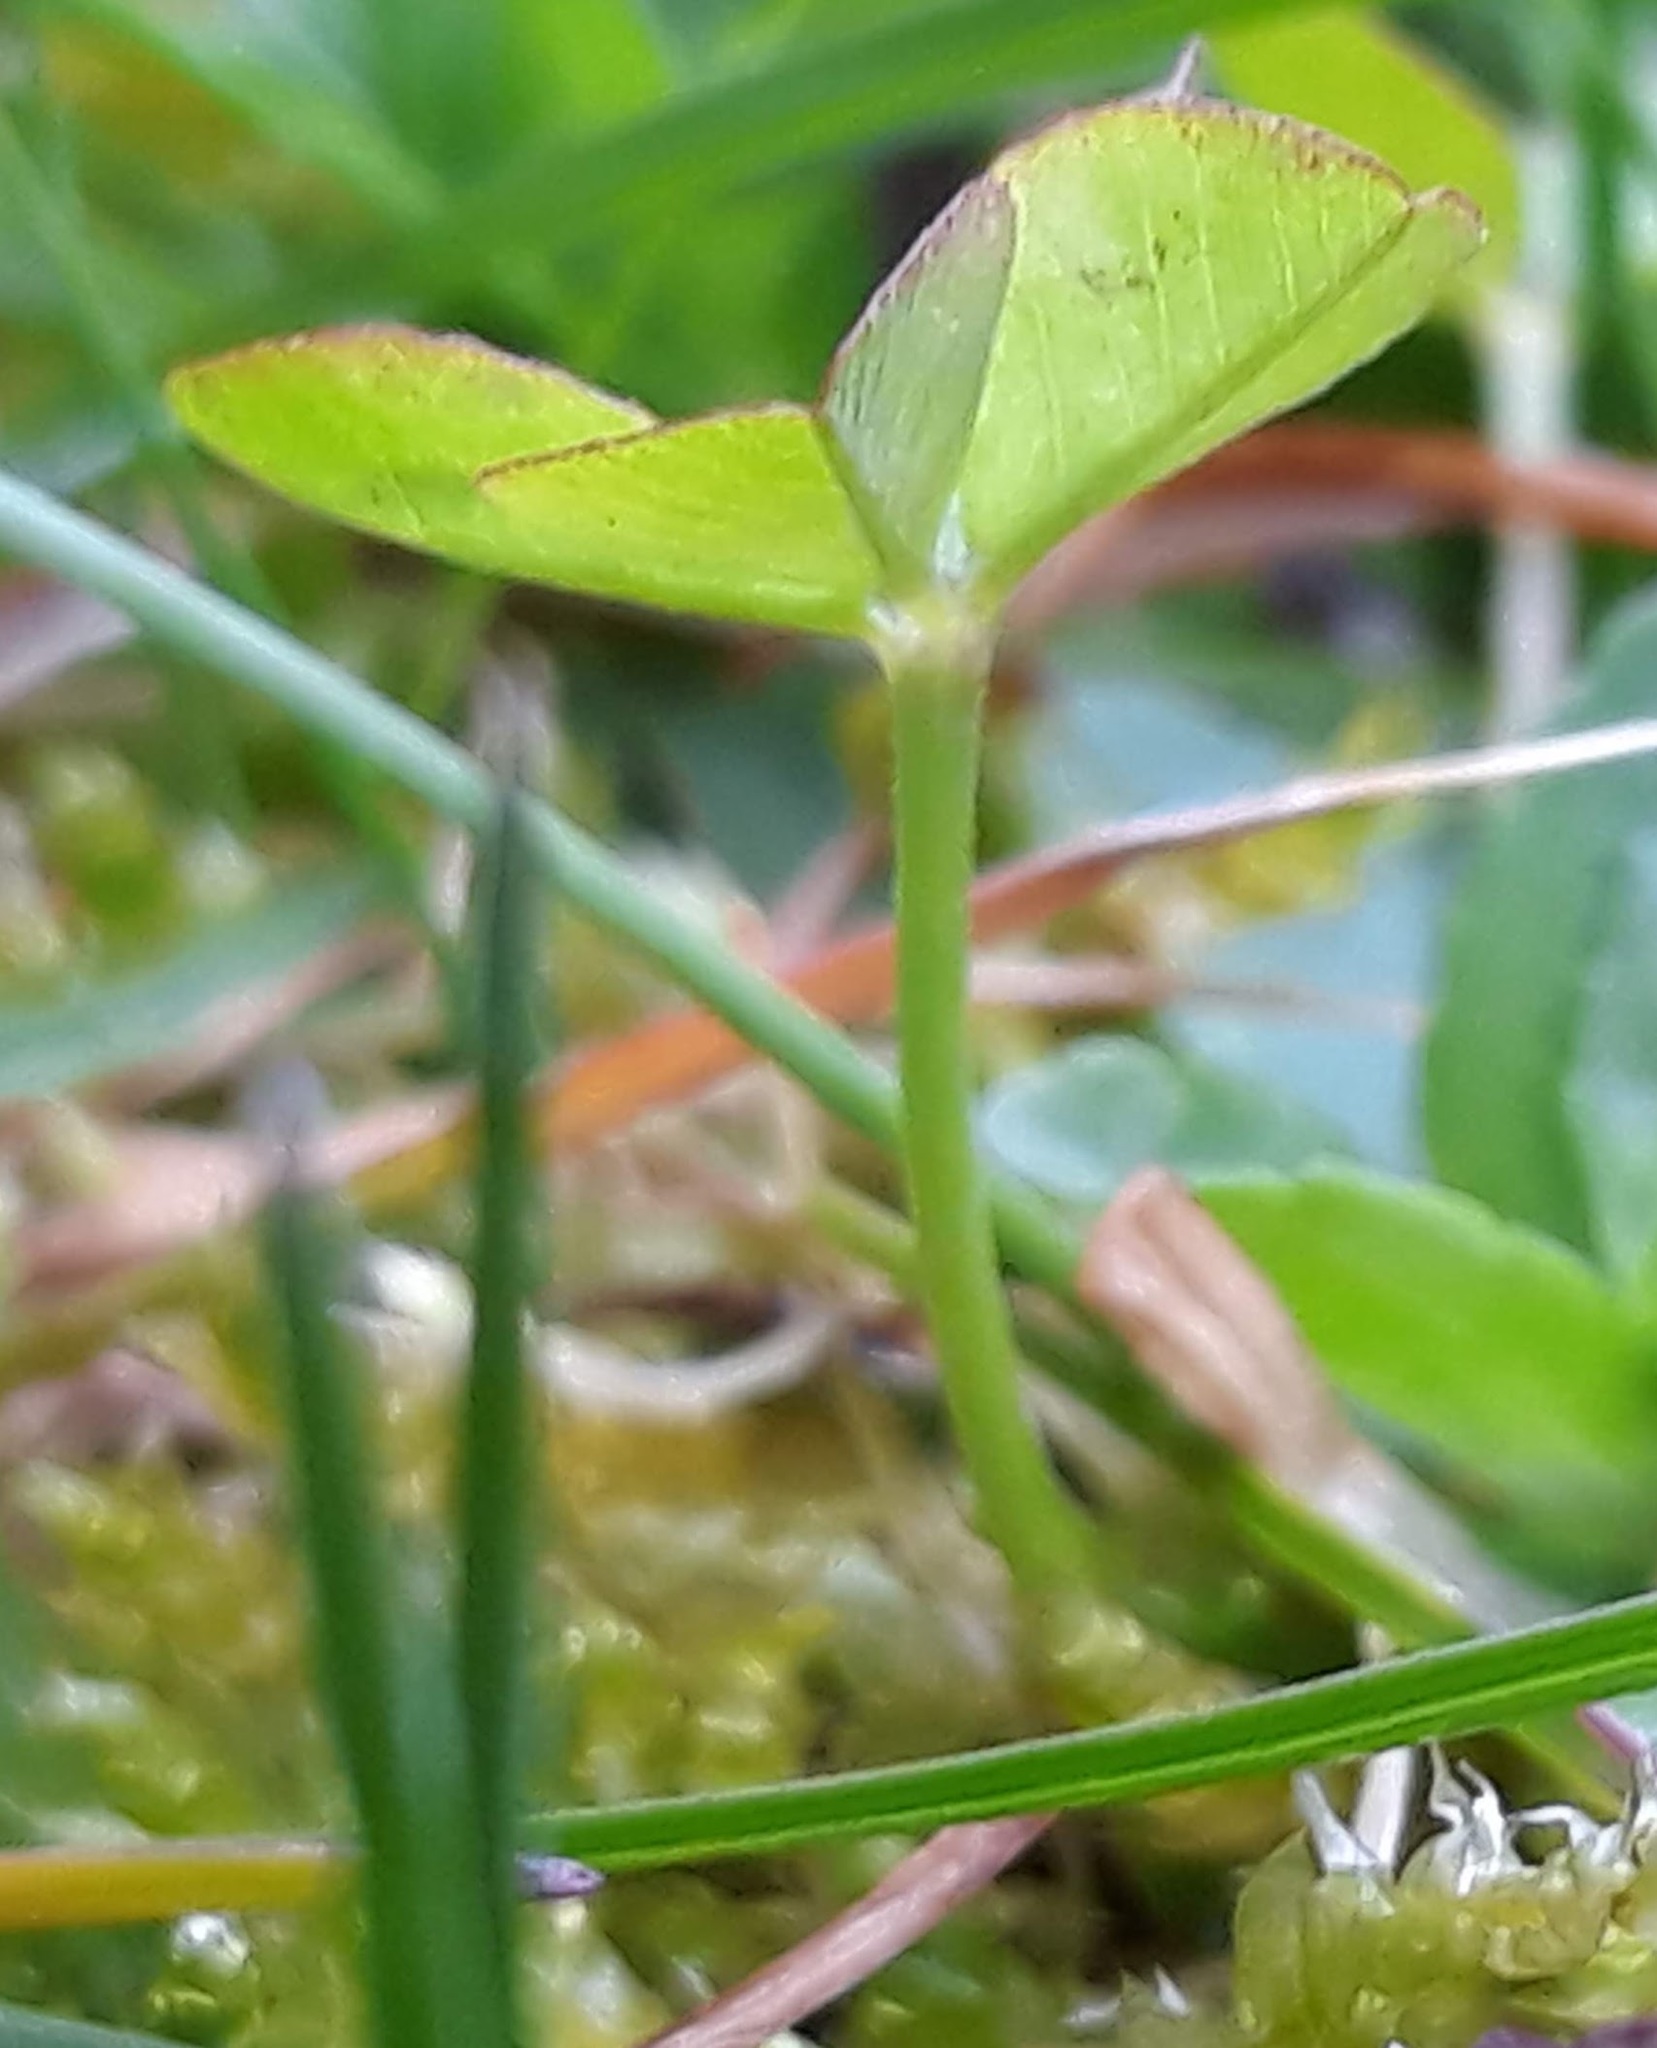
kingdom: Plantae
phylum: Tracheophyta
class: Magnoliopsida
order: Fabales
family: Fabaceae
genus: Trifolium
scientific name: Trifolium repens
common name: White clover
